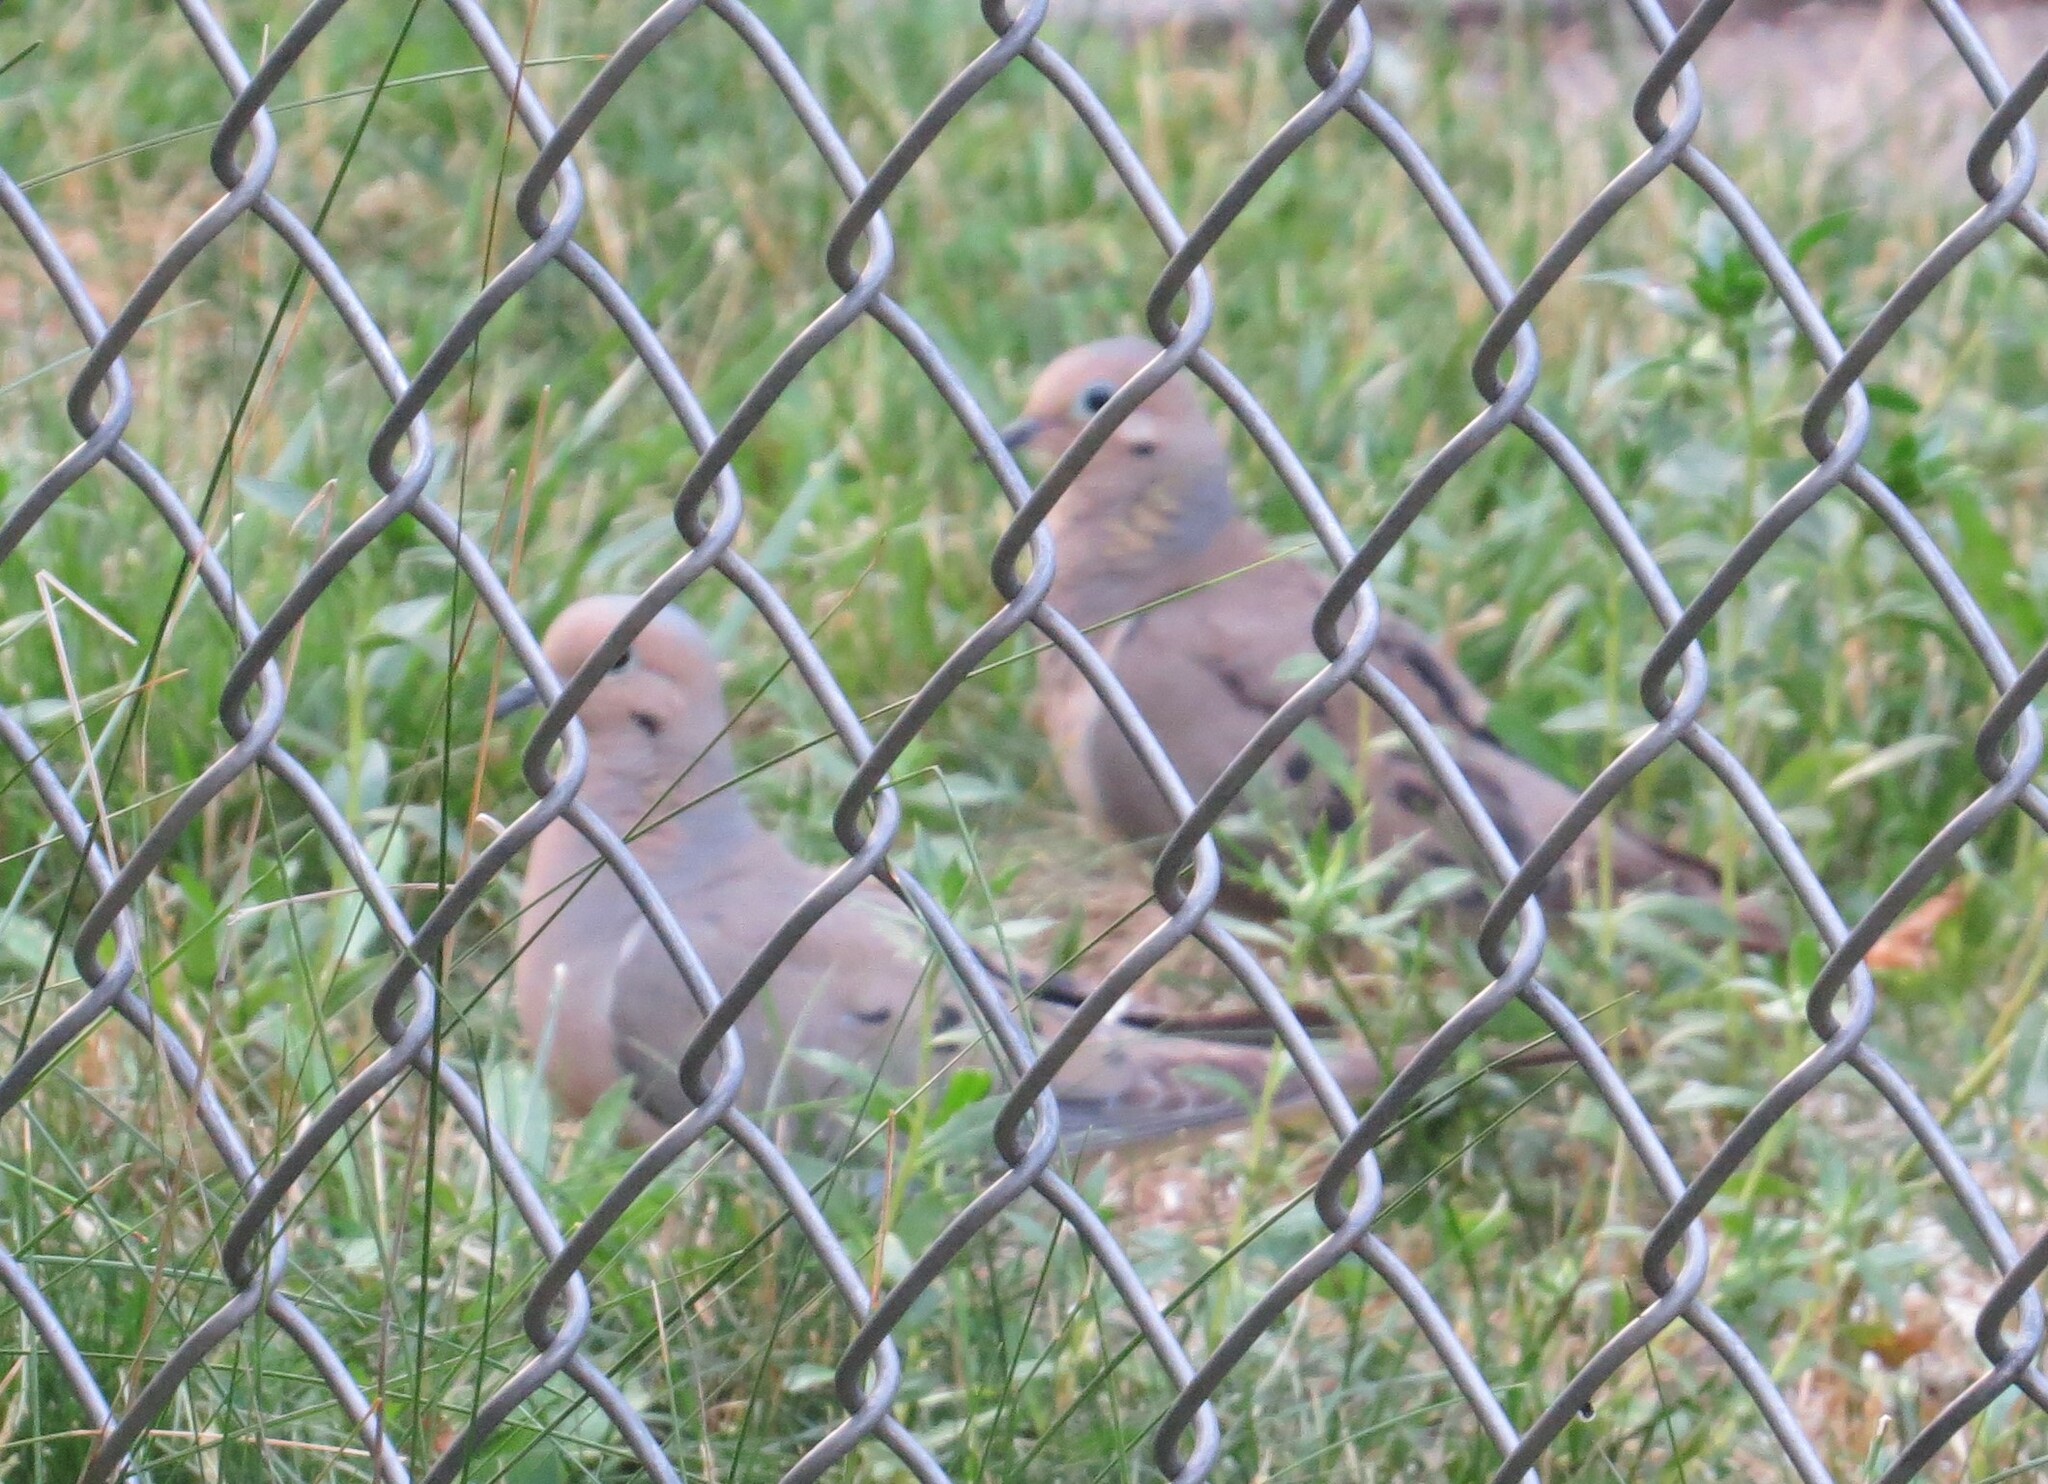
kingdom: Animalia
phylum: Chordata
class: Aves
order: Columbiformes
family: Columbidae
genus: Zenaida
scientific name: Zenaida macroura
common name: Mourning dove
